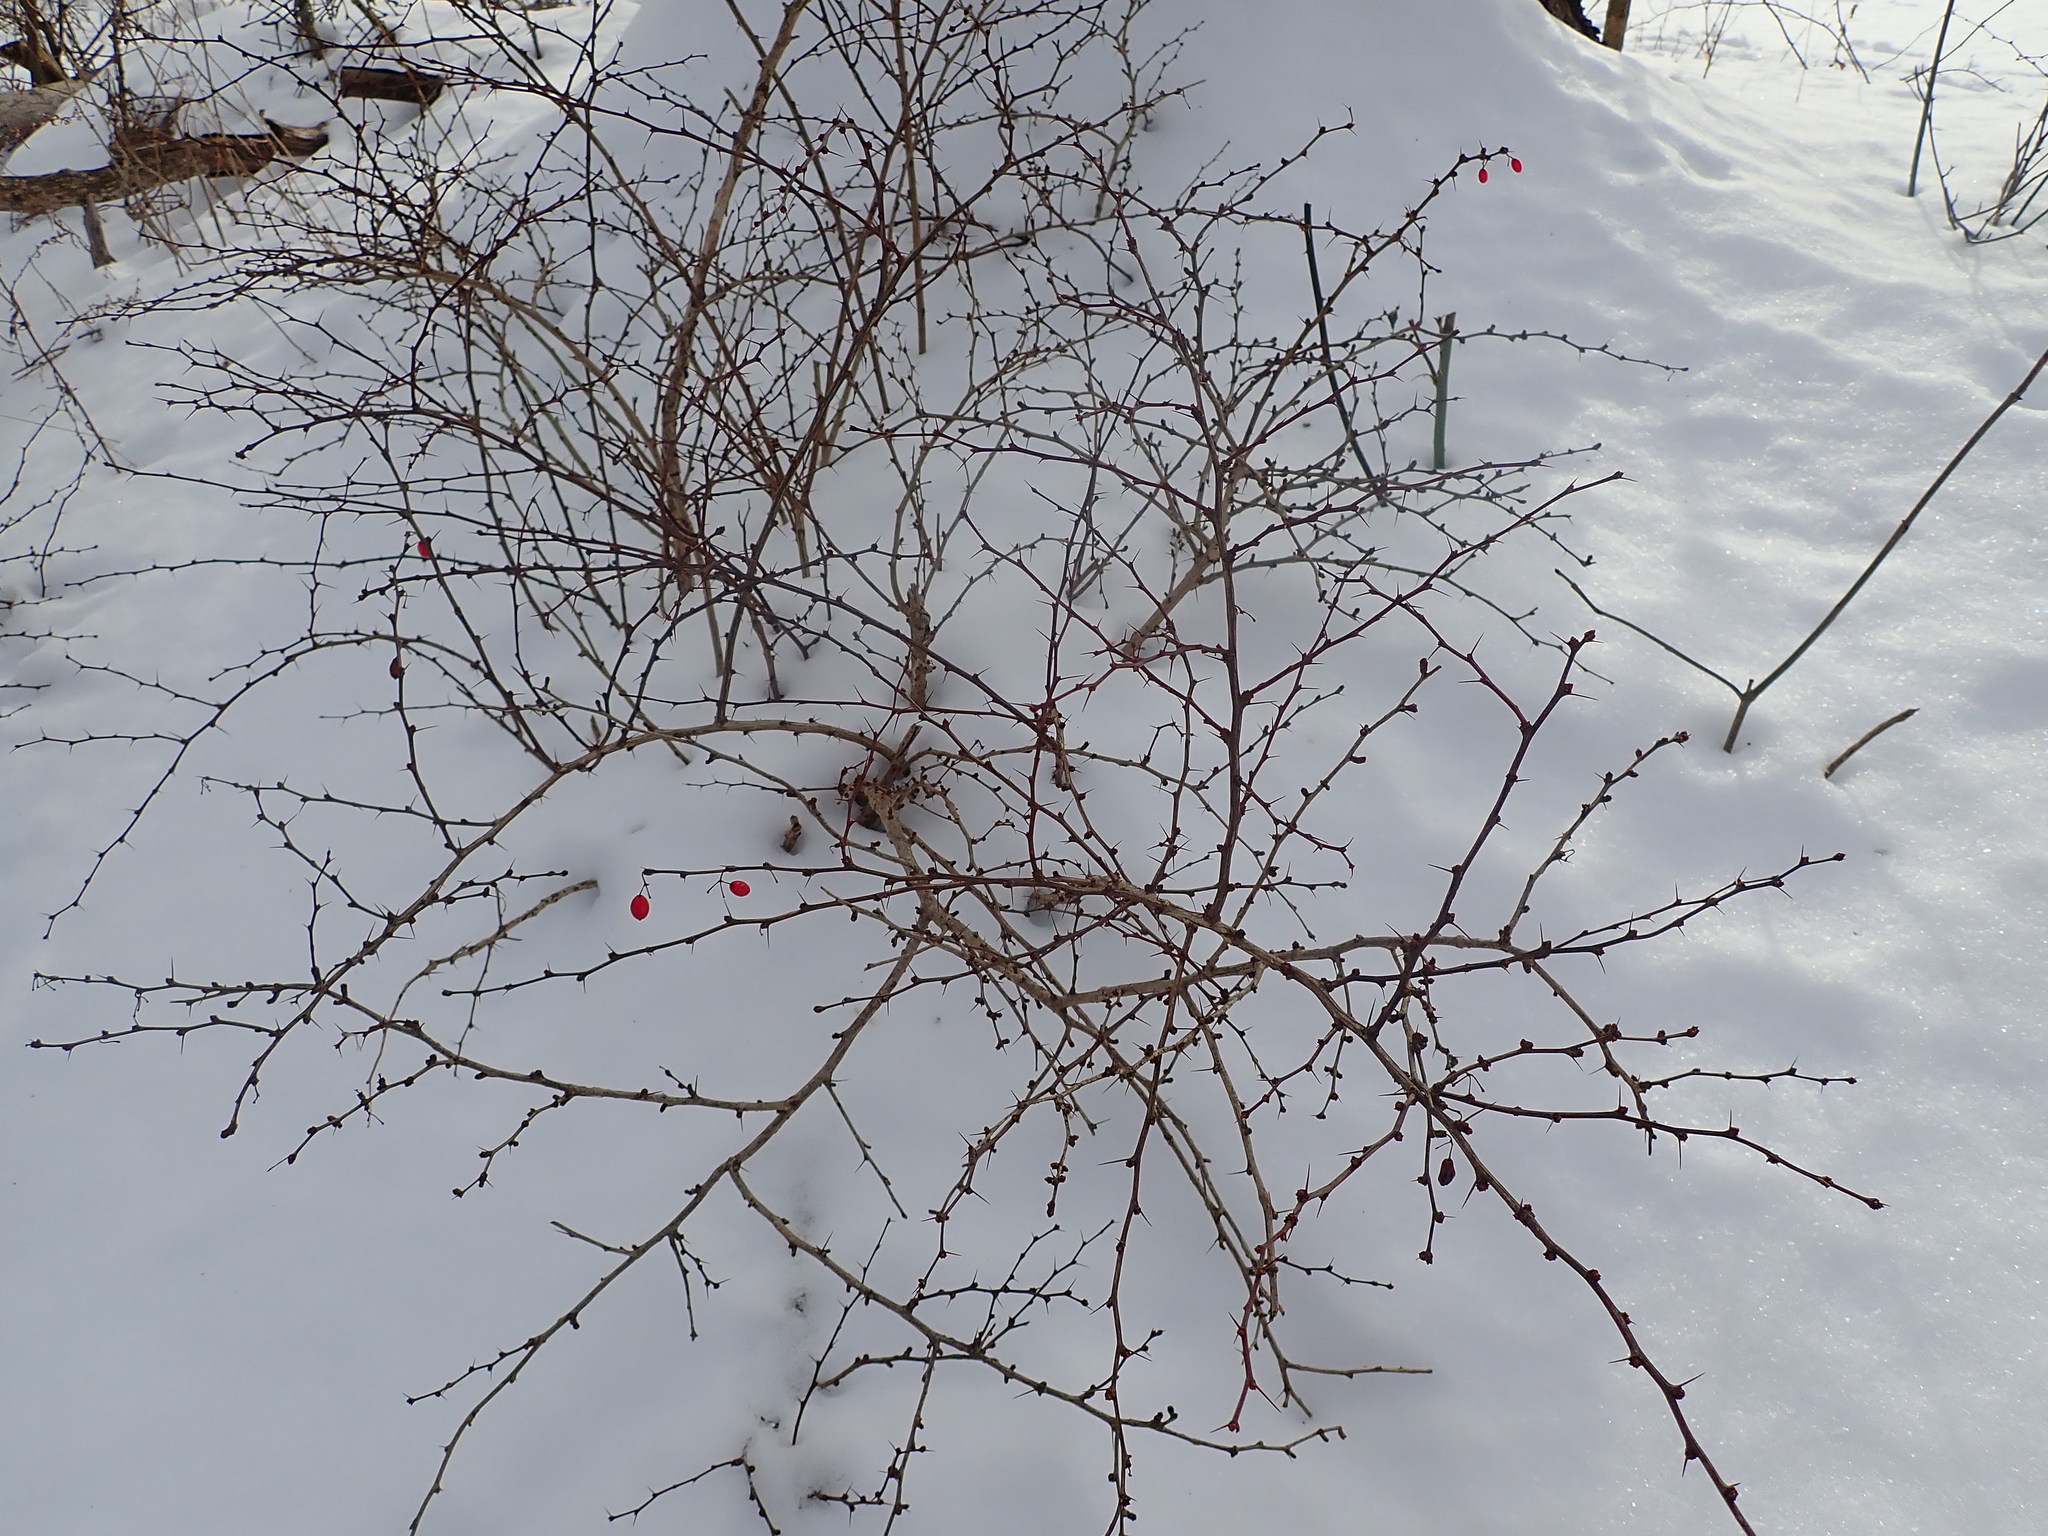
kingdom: Plantae
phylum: Tracheophyta
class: Magnoliopsida
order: Ranunculales
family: Berberidaceae
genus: Berberis
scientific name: Berberis thunbergii
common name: Japanese barberry
